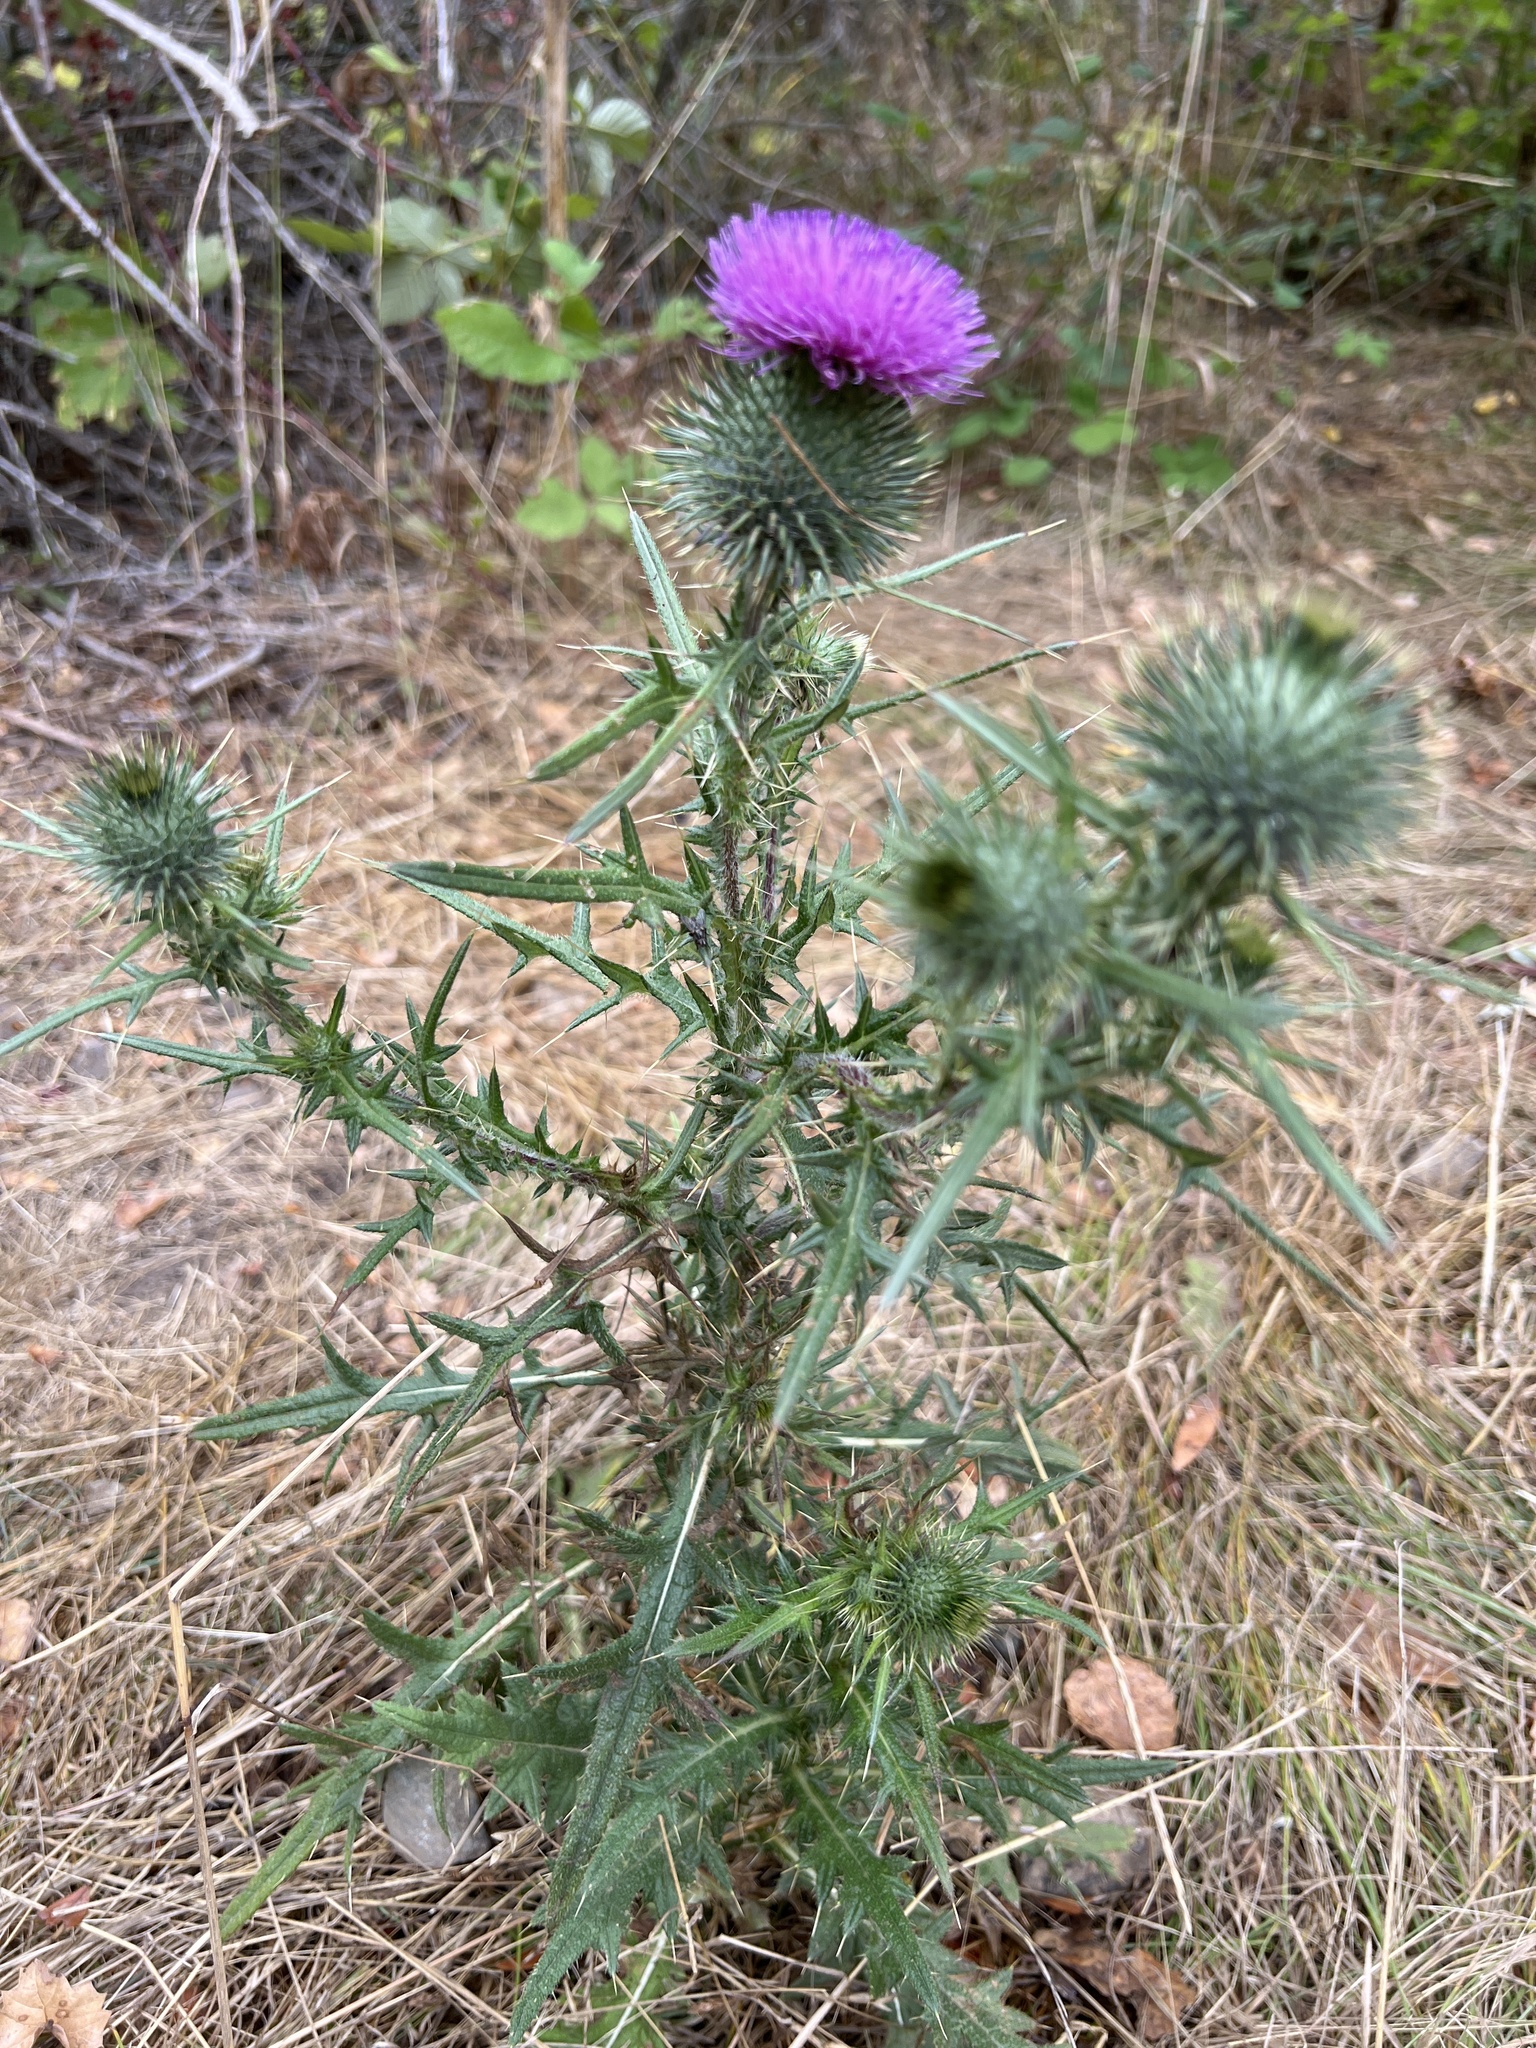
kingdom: Plantae
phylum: Tracheophyta
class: Magnoliopsida
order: Asterales
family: Asteraceae
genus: Cirsium
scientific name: Cirsium vulgare
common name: Bull thistle
